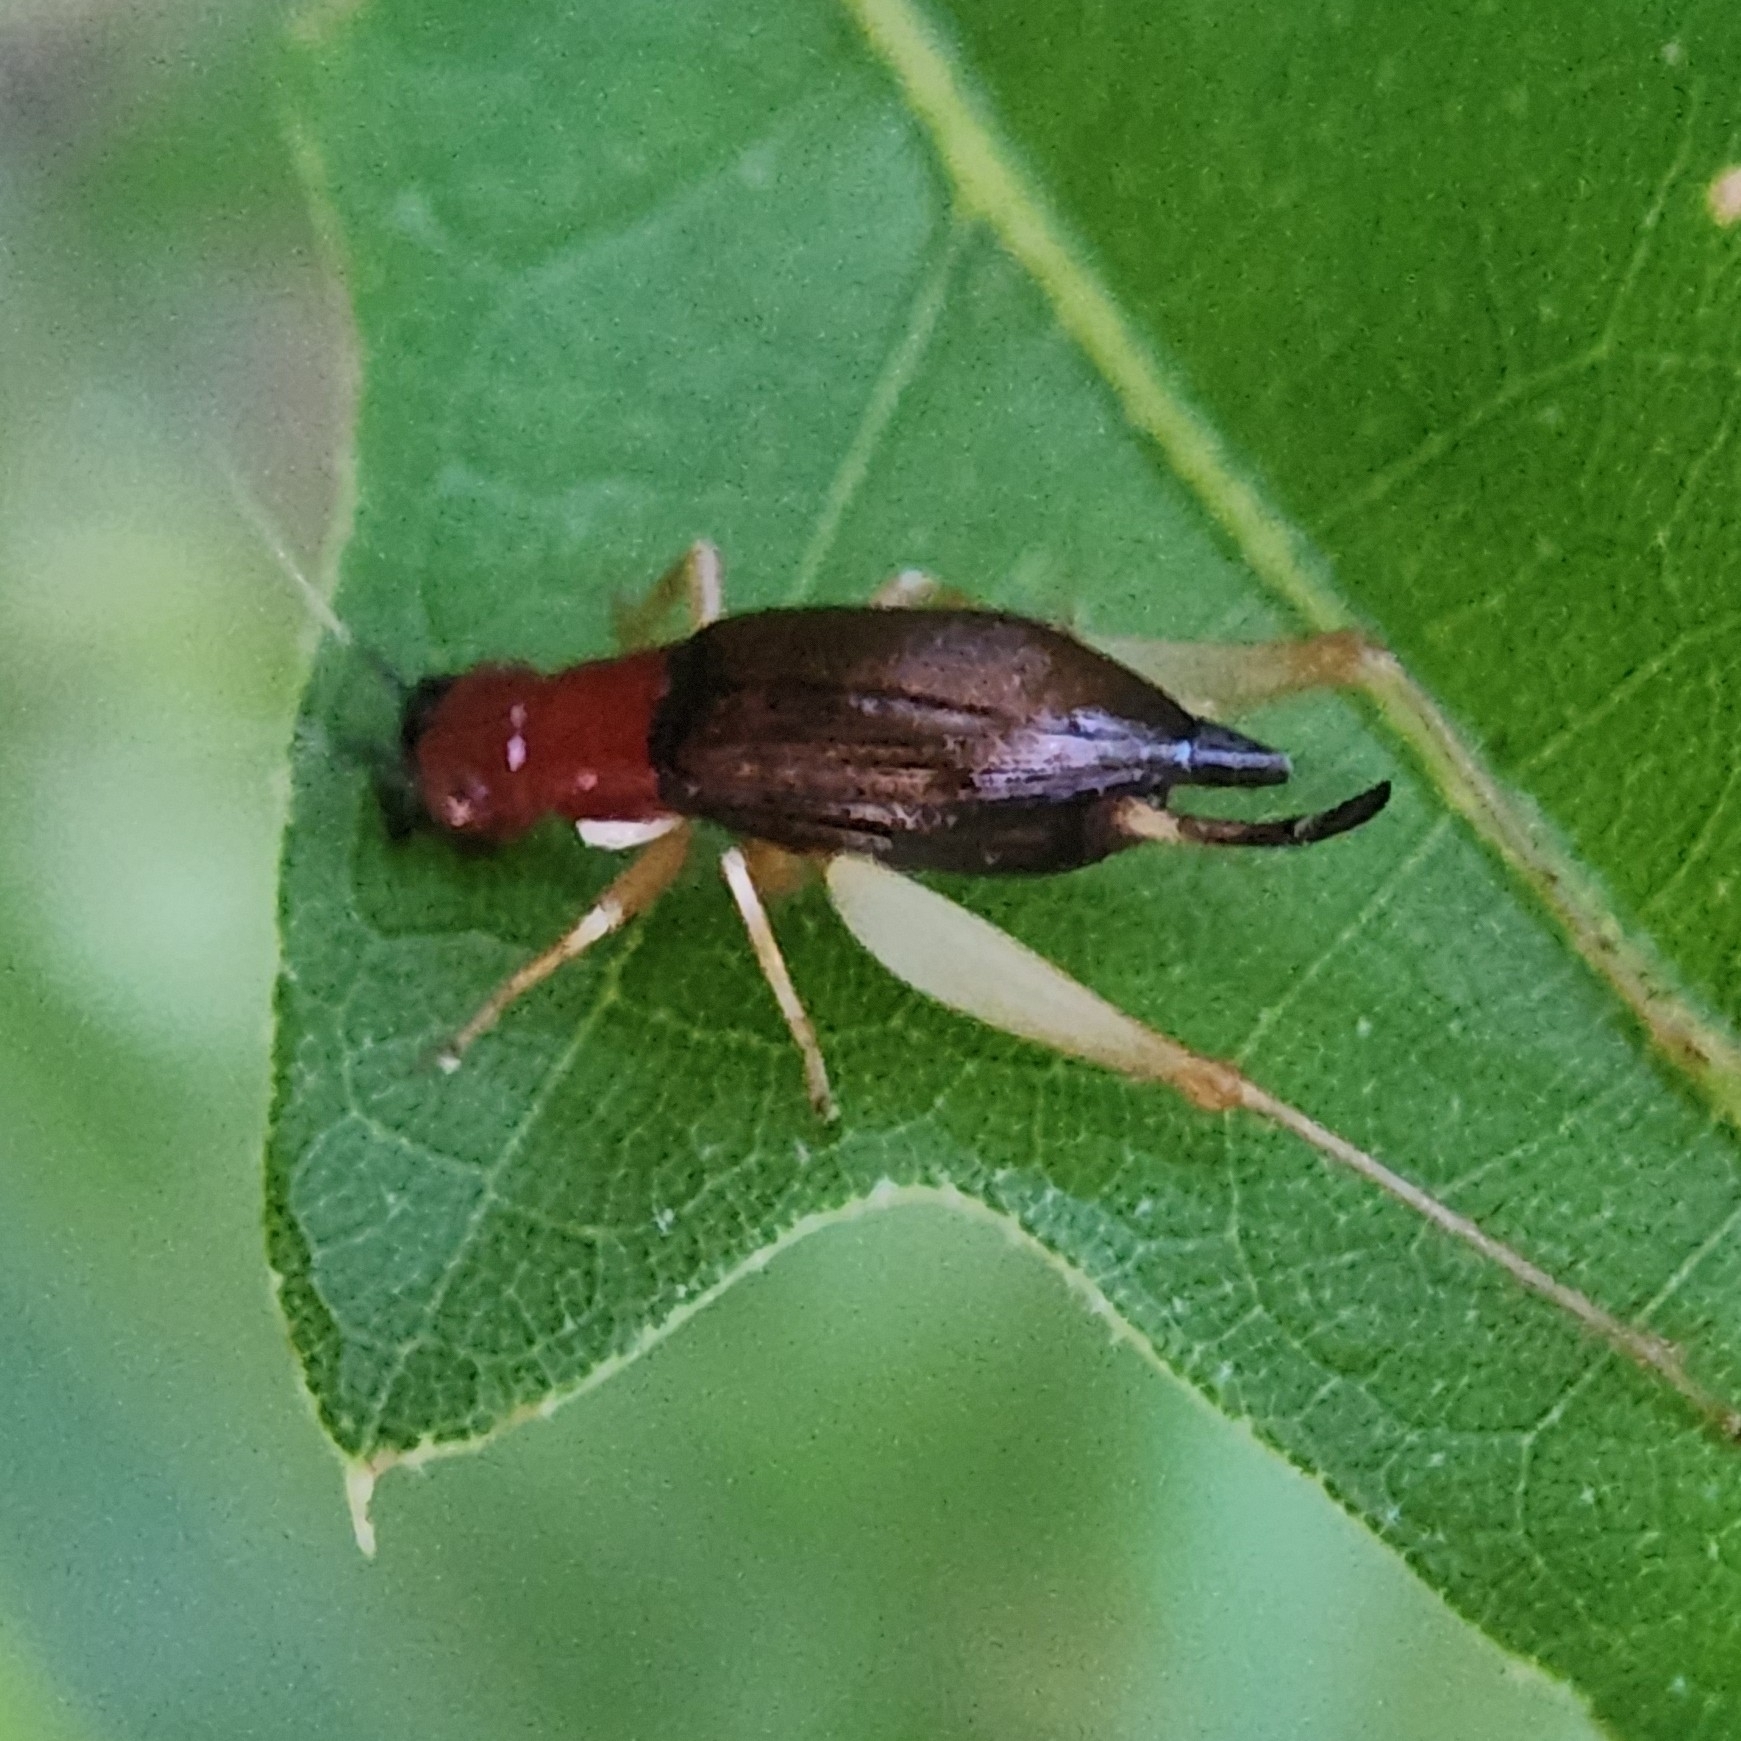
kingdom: Animalia
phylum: Arthropoda
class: Insecta
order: Orthoptera
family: Trigonidiidae
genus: Phyllopalpus
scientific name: Phyllopalpus pulchellus
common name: Handsome trig
